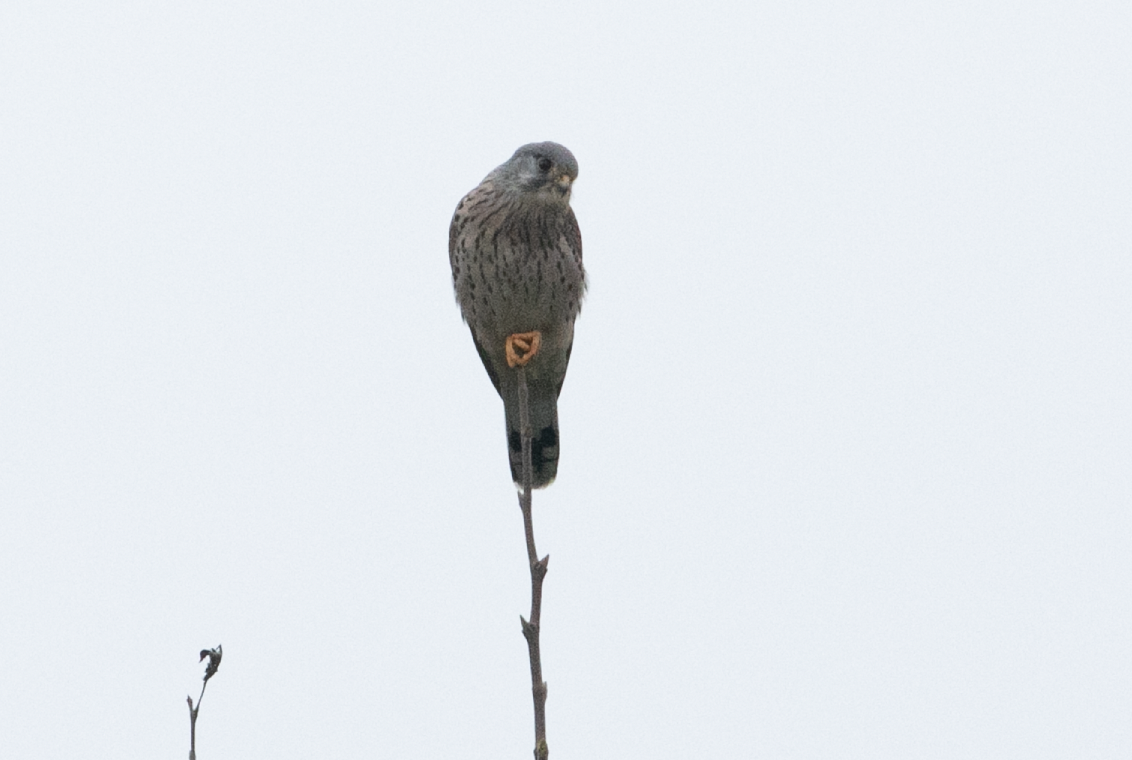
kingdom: Animalia
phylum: Chordata
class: Aves
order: Falconiformes
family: Falconidae
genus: Falco
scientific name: Falco tinnunculus
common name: Common kestrel
